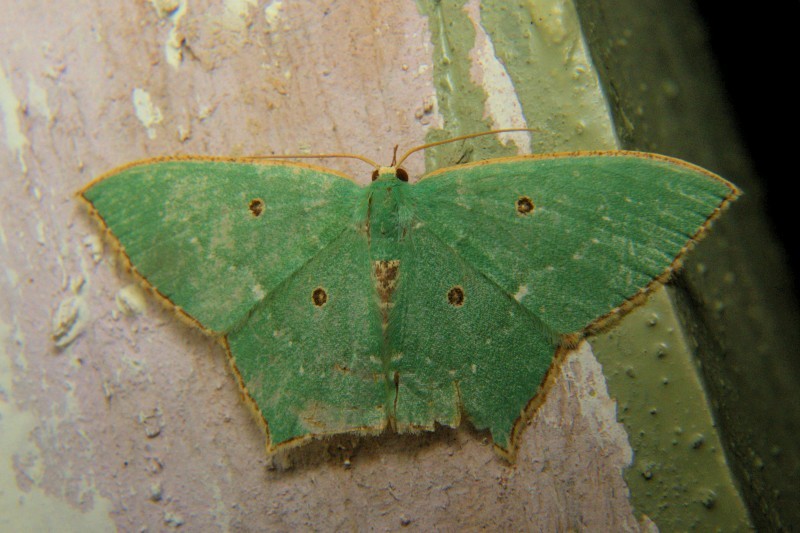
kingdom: Animalia
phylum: Arthropoda
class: Insecta
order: Lepidoptera
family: Geometridae
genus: Cyclothea
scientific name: Cyclothea disjuncta
